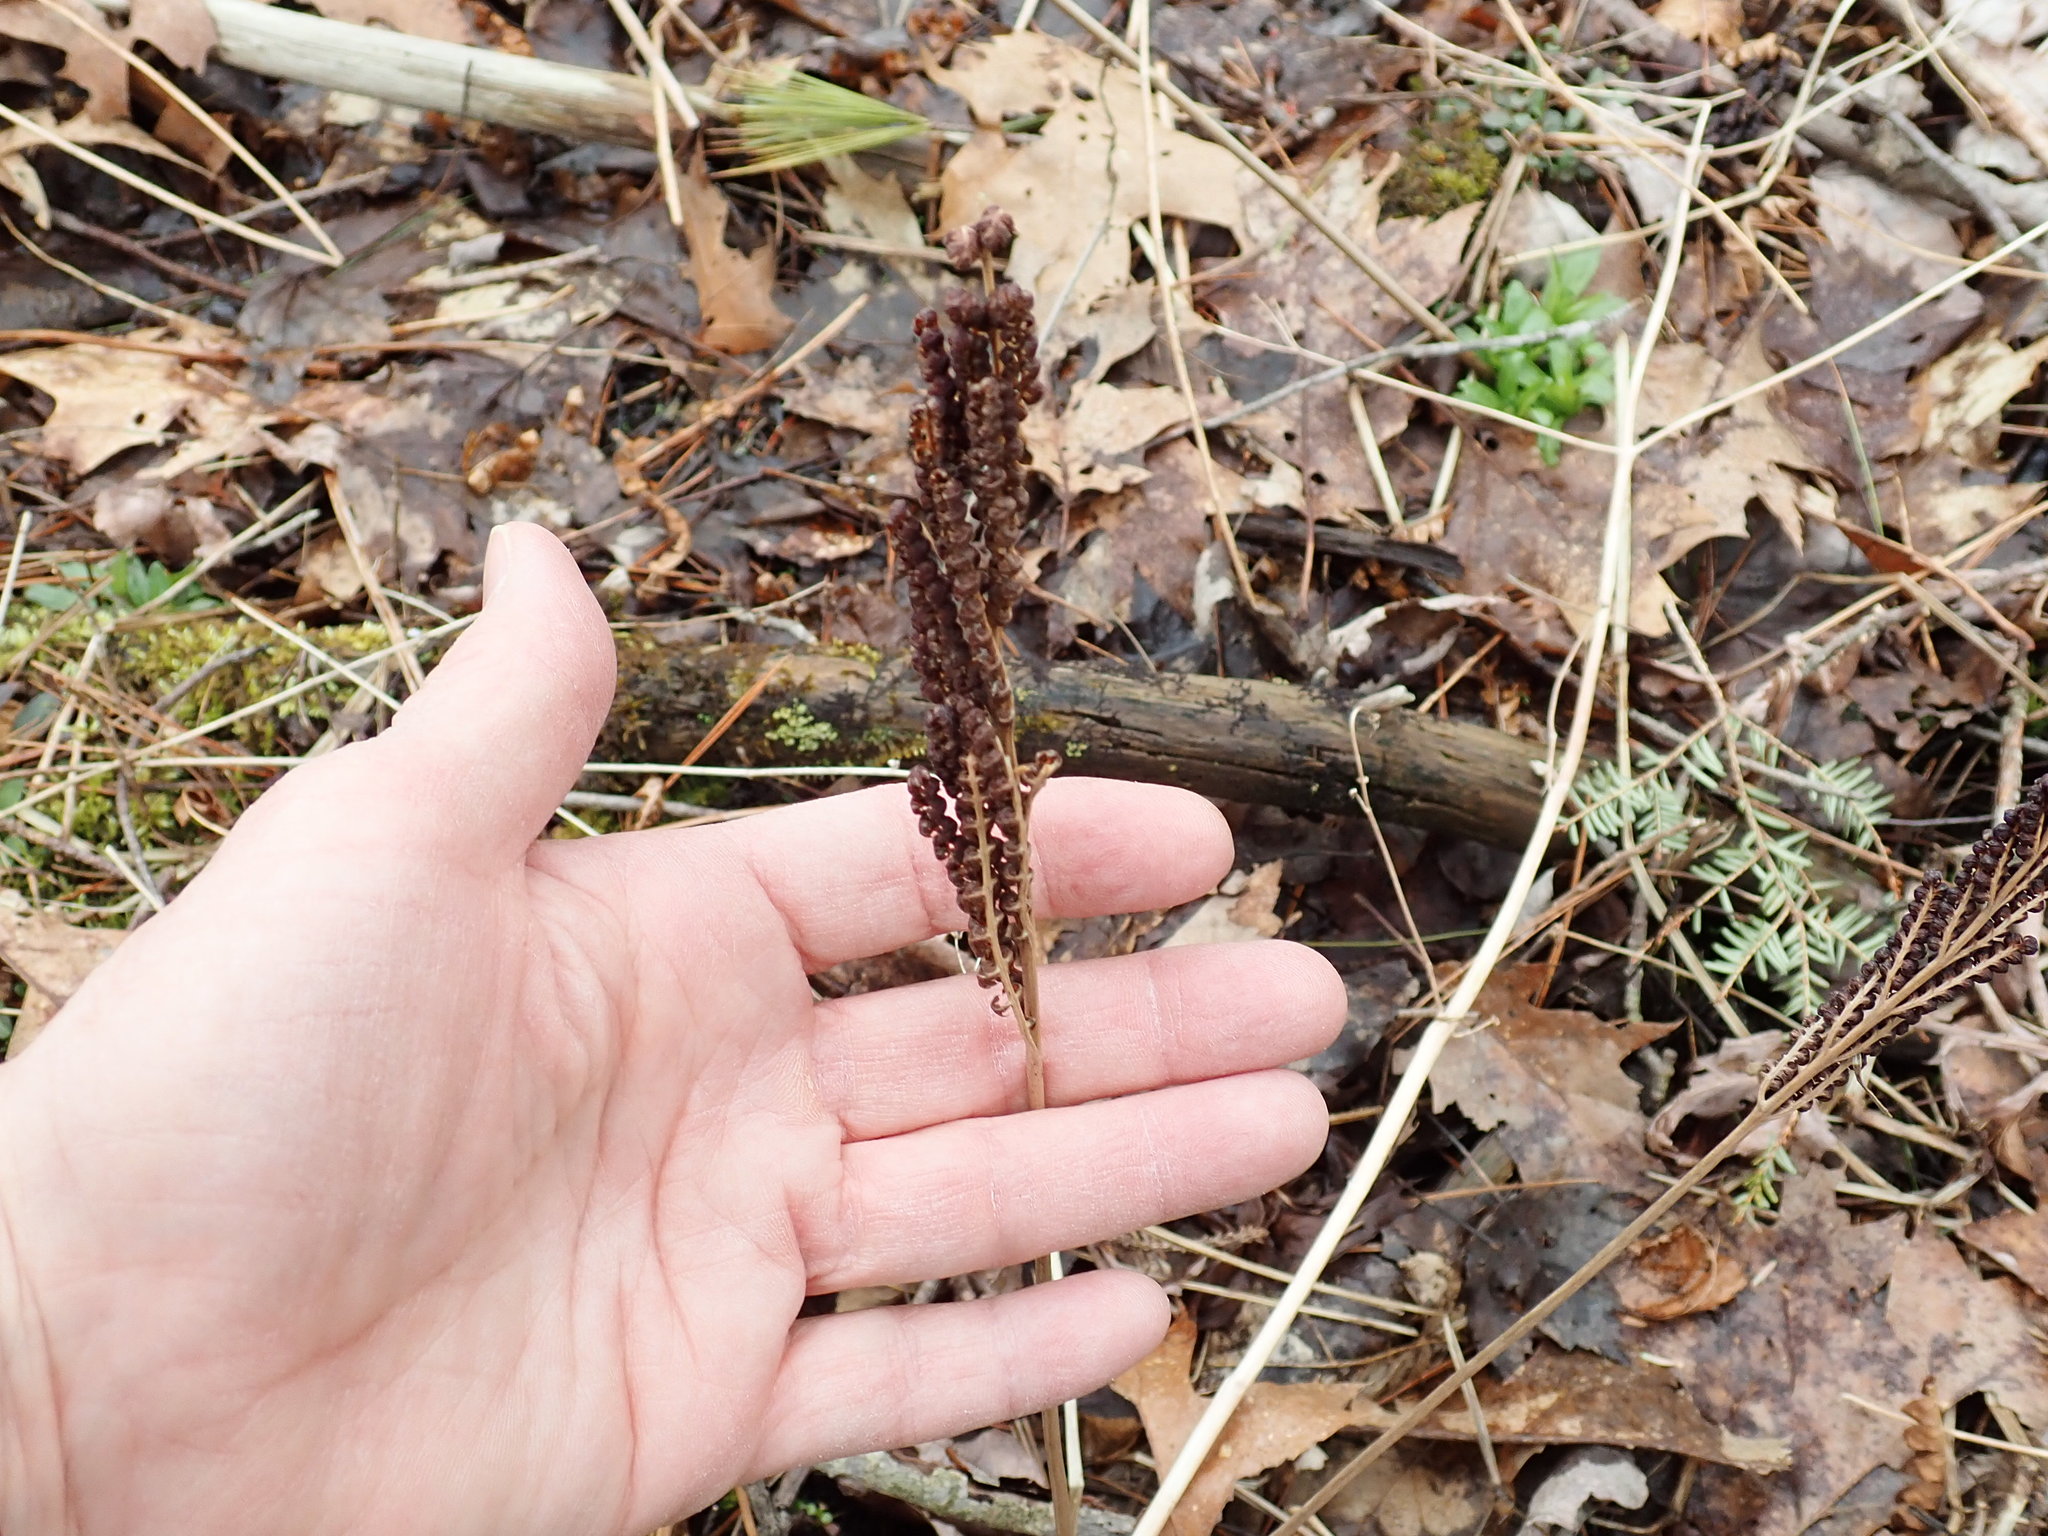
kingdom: Plantae
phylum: Tracheophyta
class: Polypodiopsida
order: Polypodiales
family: Onocleaceae
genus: Onoclea
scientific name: Onoclea sensibilis
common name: Sensitive fern
